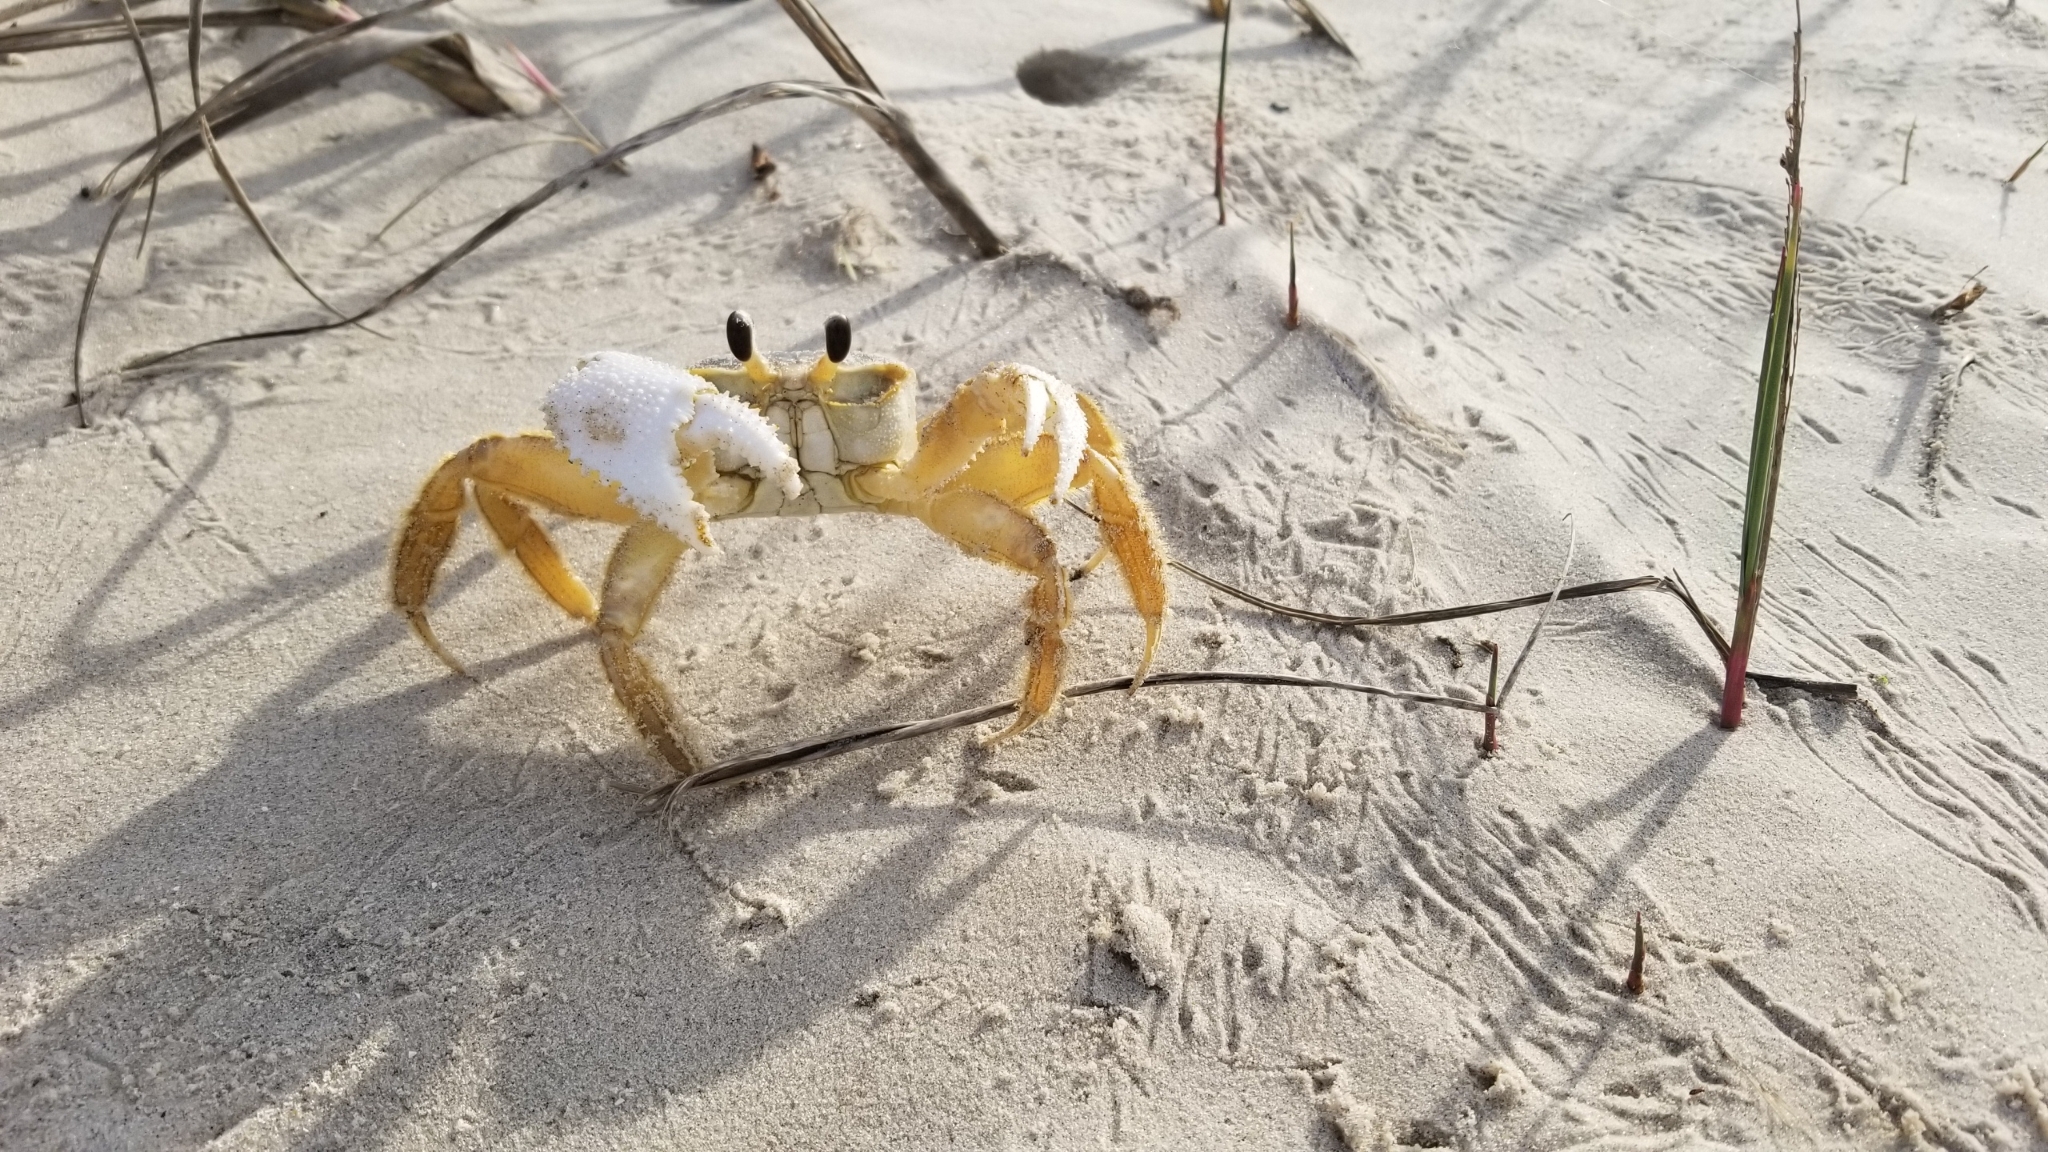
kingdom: Animalia
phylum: Arthropoda
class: Malacostraca
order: Decapoda
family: Ocypodidae
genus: Ocypode
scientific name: Ocypode quadrata
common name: Ghost crab
